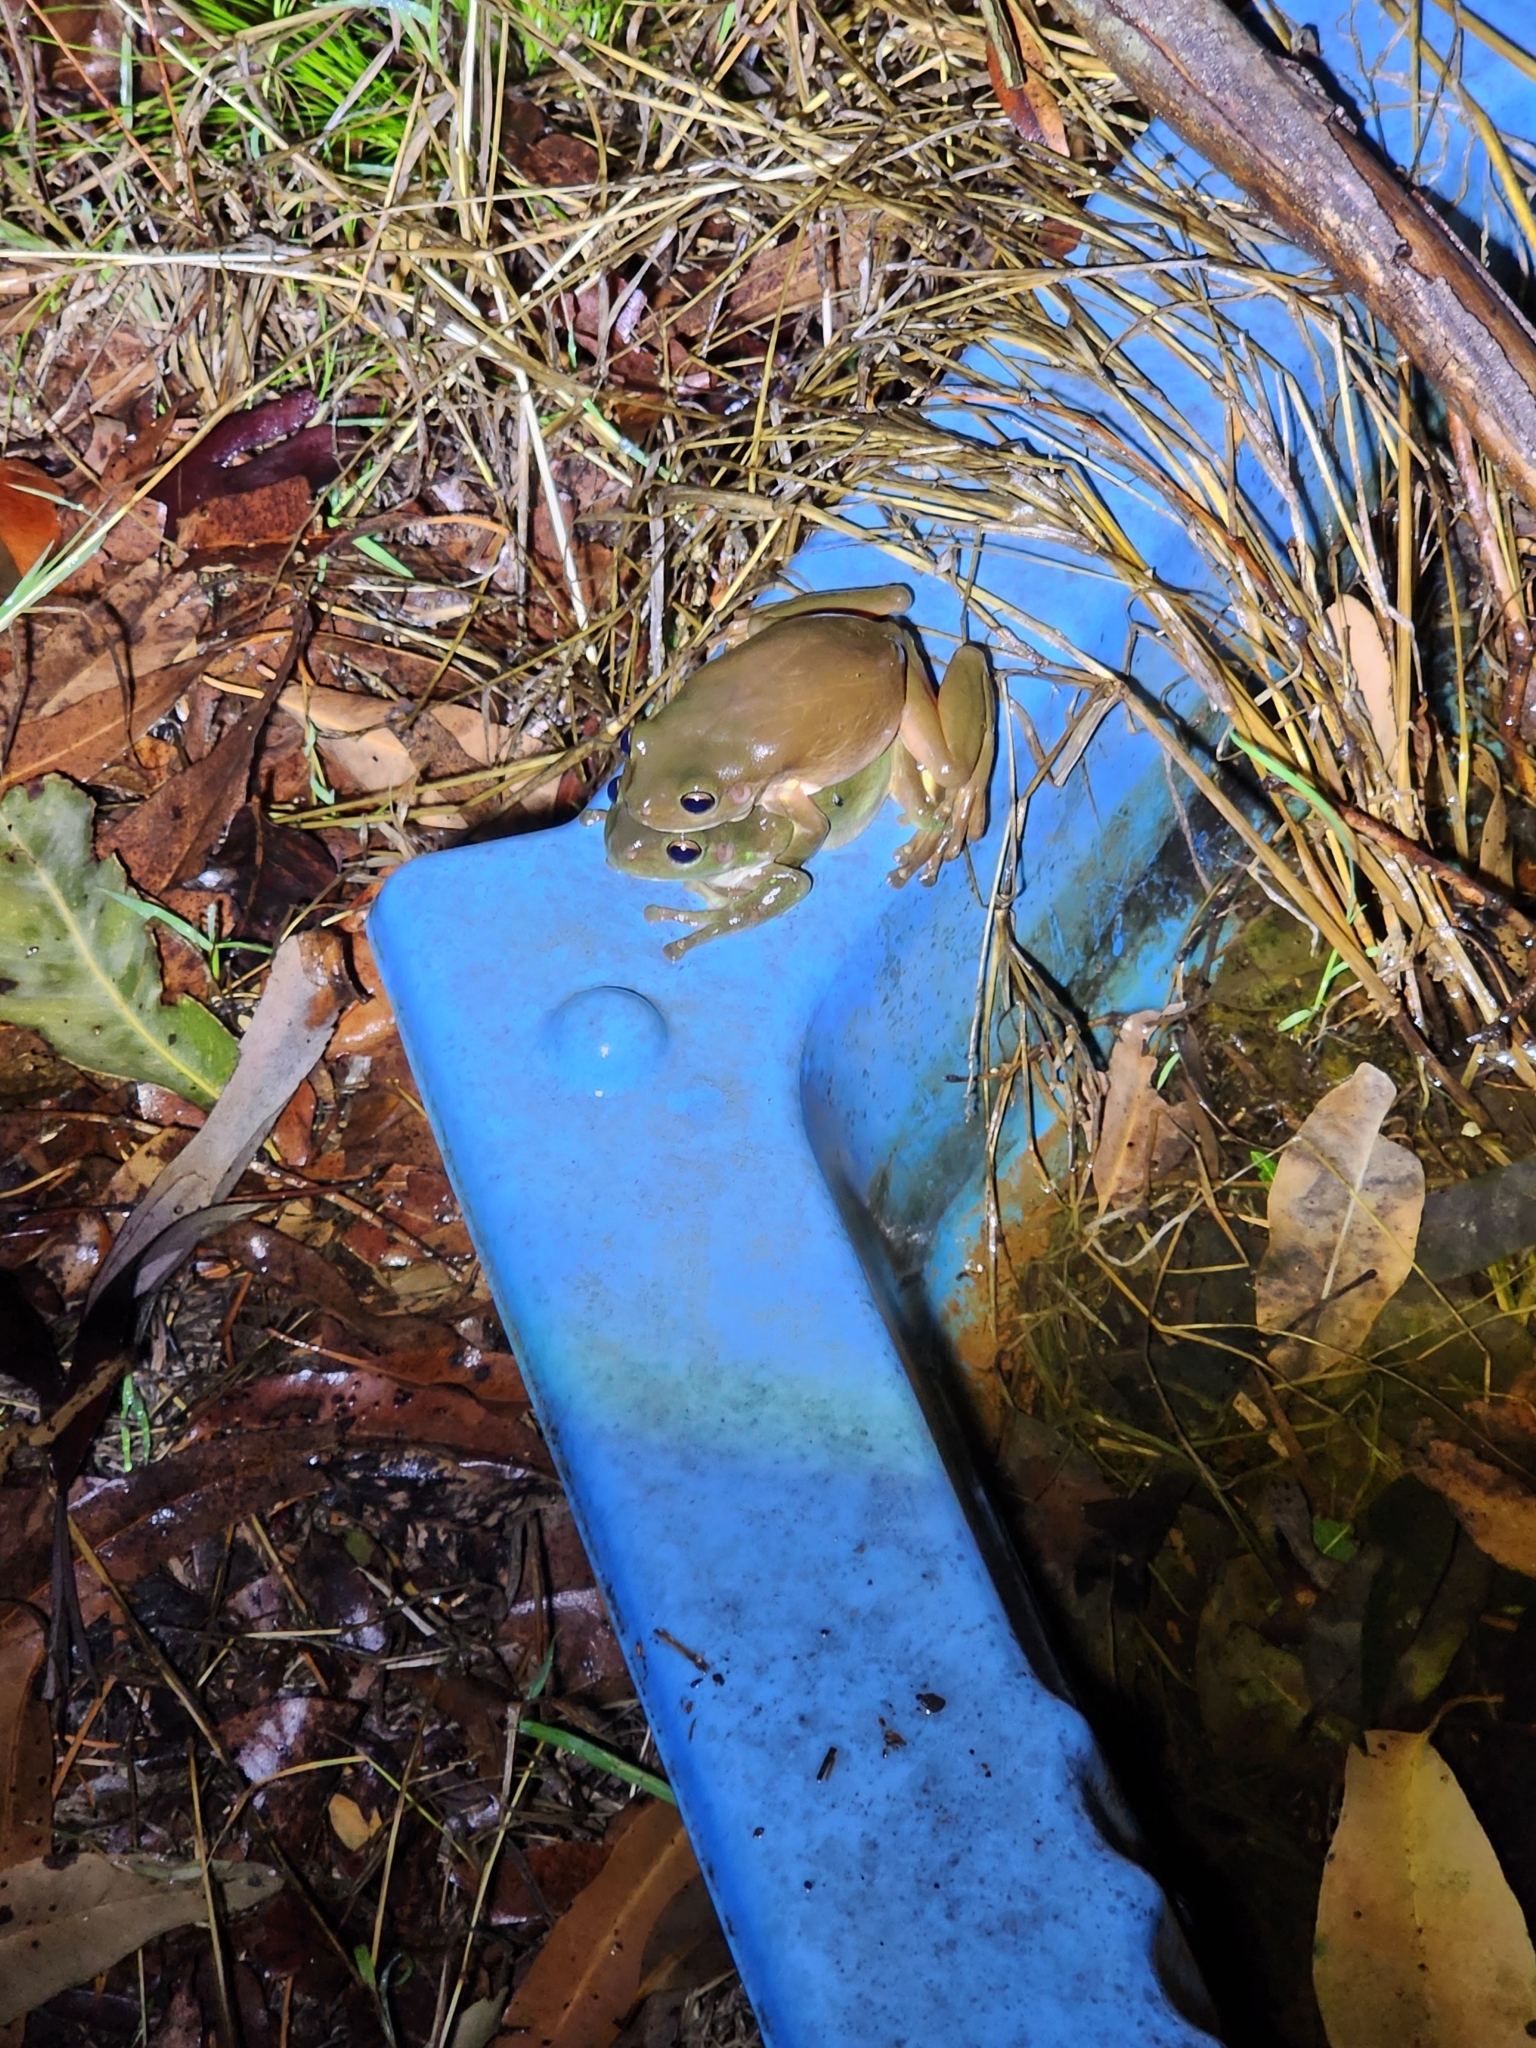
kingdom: Animalia
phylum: Chordata
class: Amphibia
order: Anura
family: Pelodryadidae
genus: Ranoidea
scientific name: Ranoidea caerulea
